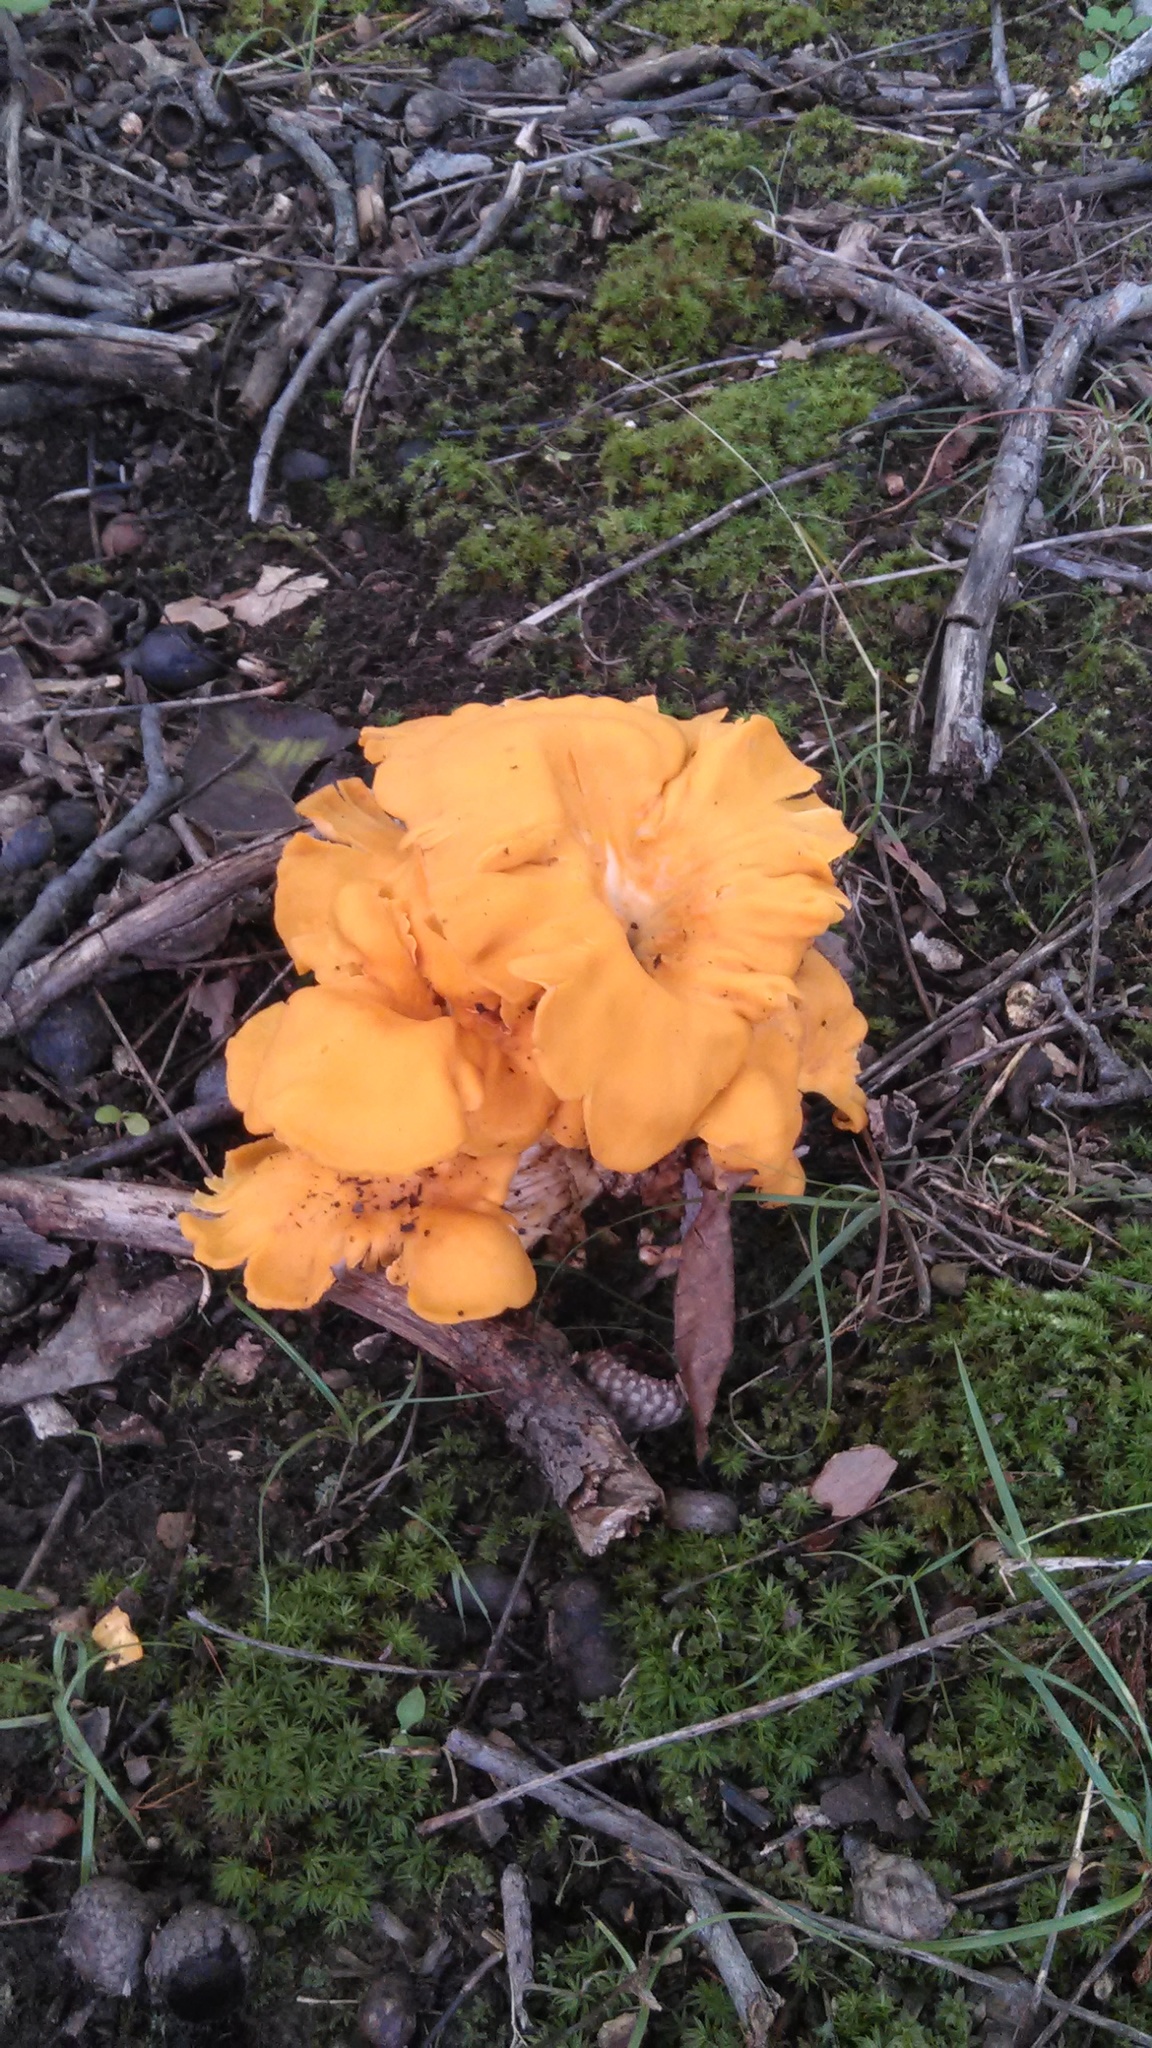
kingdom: Fungi
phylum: Basidiomycota
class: Agaricomycetes
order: Cantharellales
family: Hydnaceae
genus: Cantharellus
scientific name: Cantharellus flavolateritius
